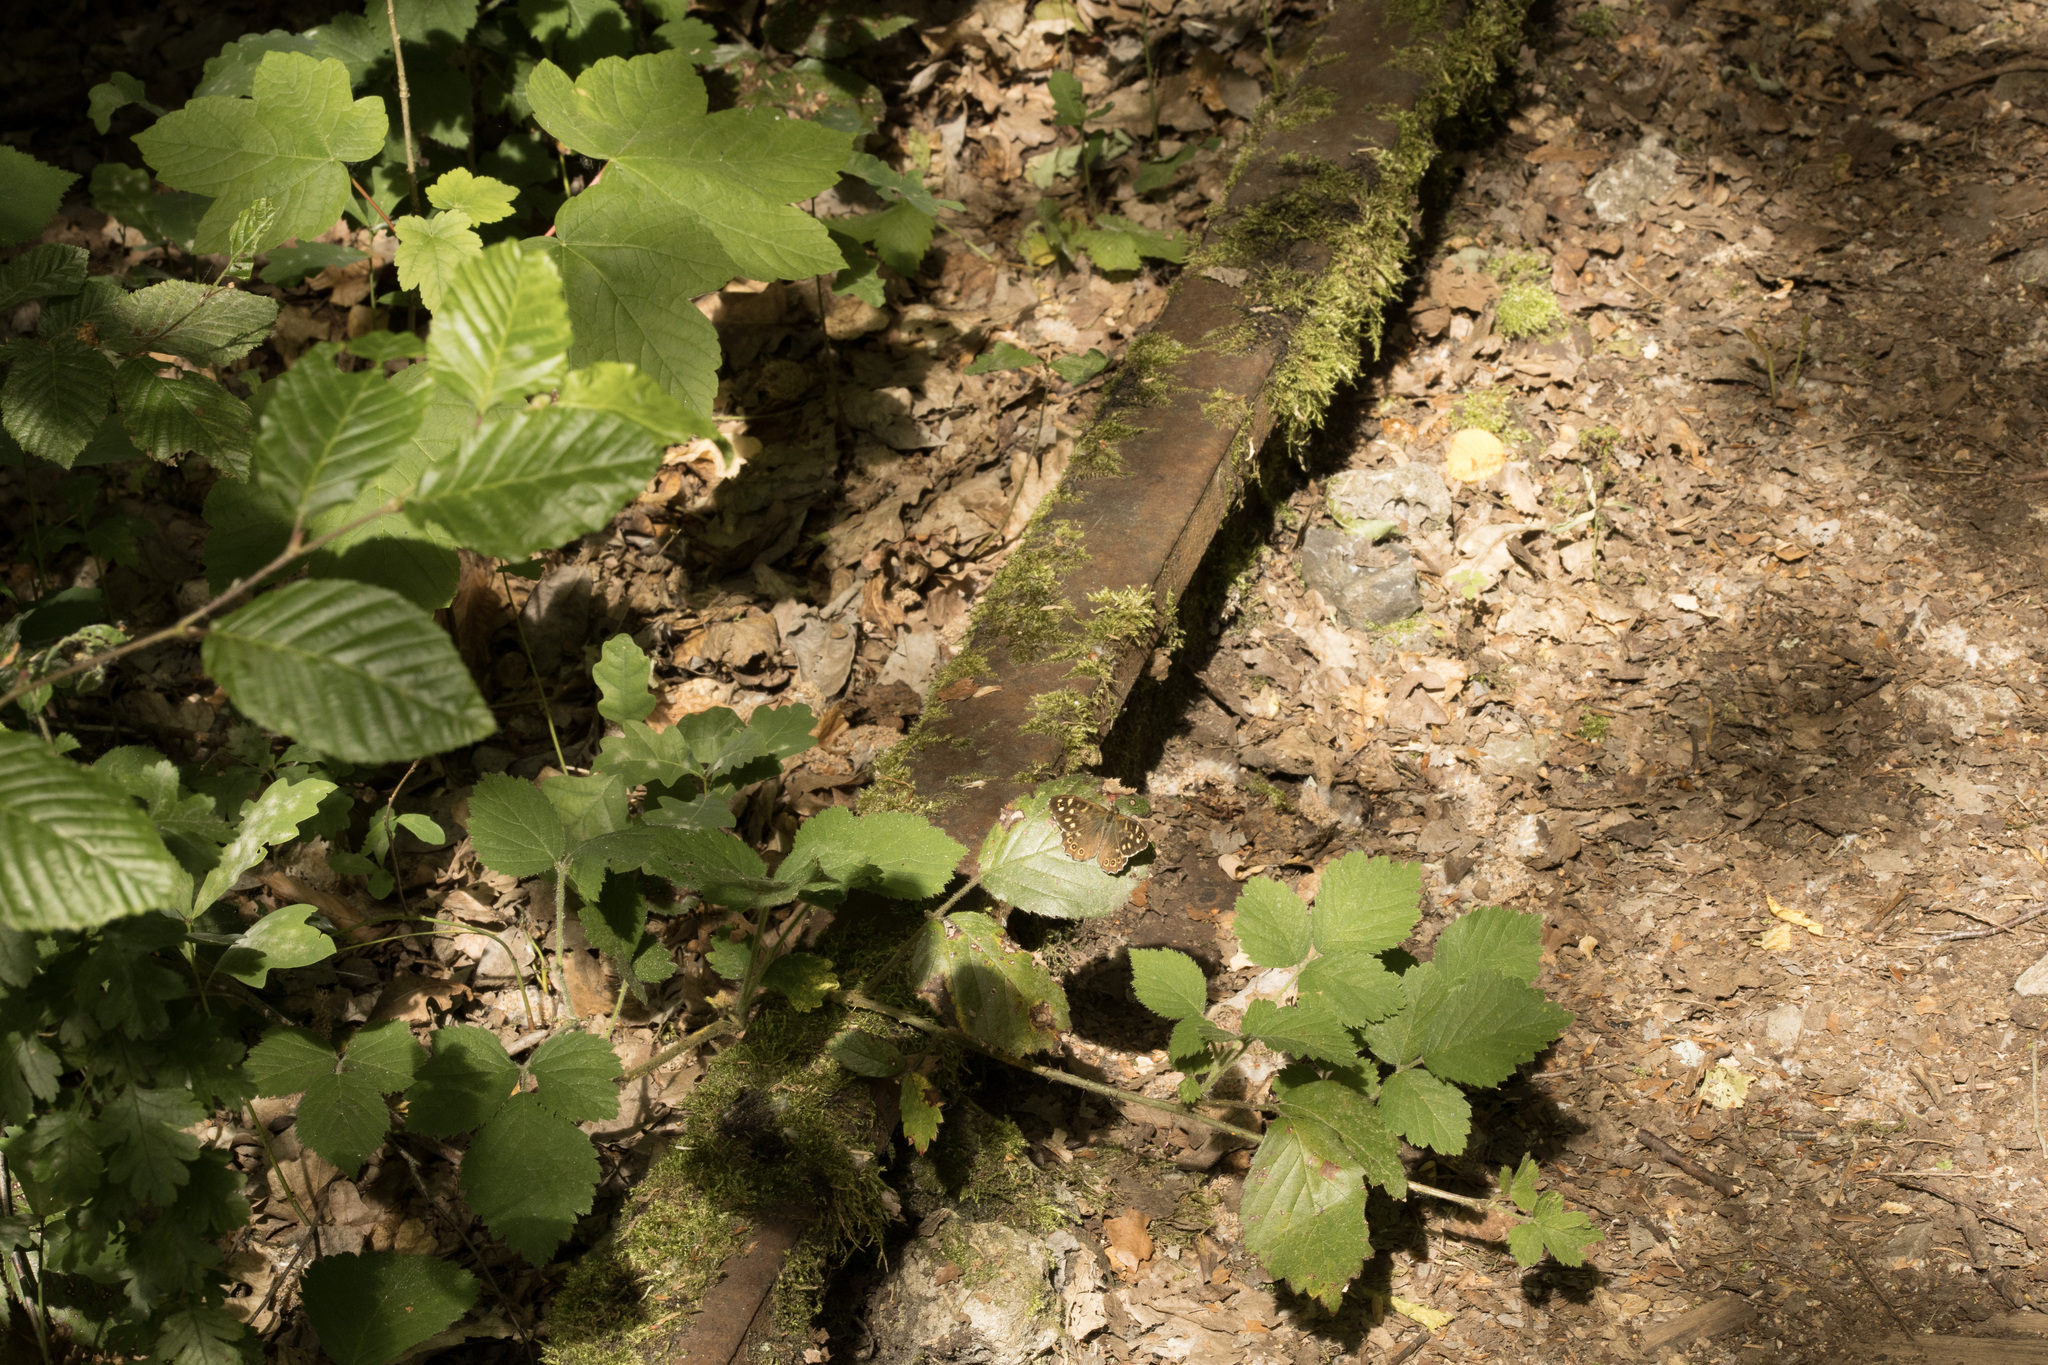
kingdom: Animalia
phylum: Arthropoda
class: Insecta
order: Lepidoptera
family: Nymphalidae
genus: Pararge
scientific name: Pararge aegeria
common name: Speckled wood
